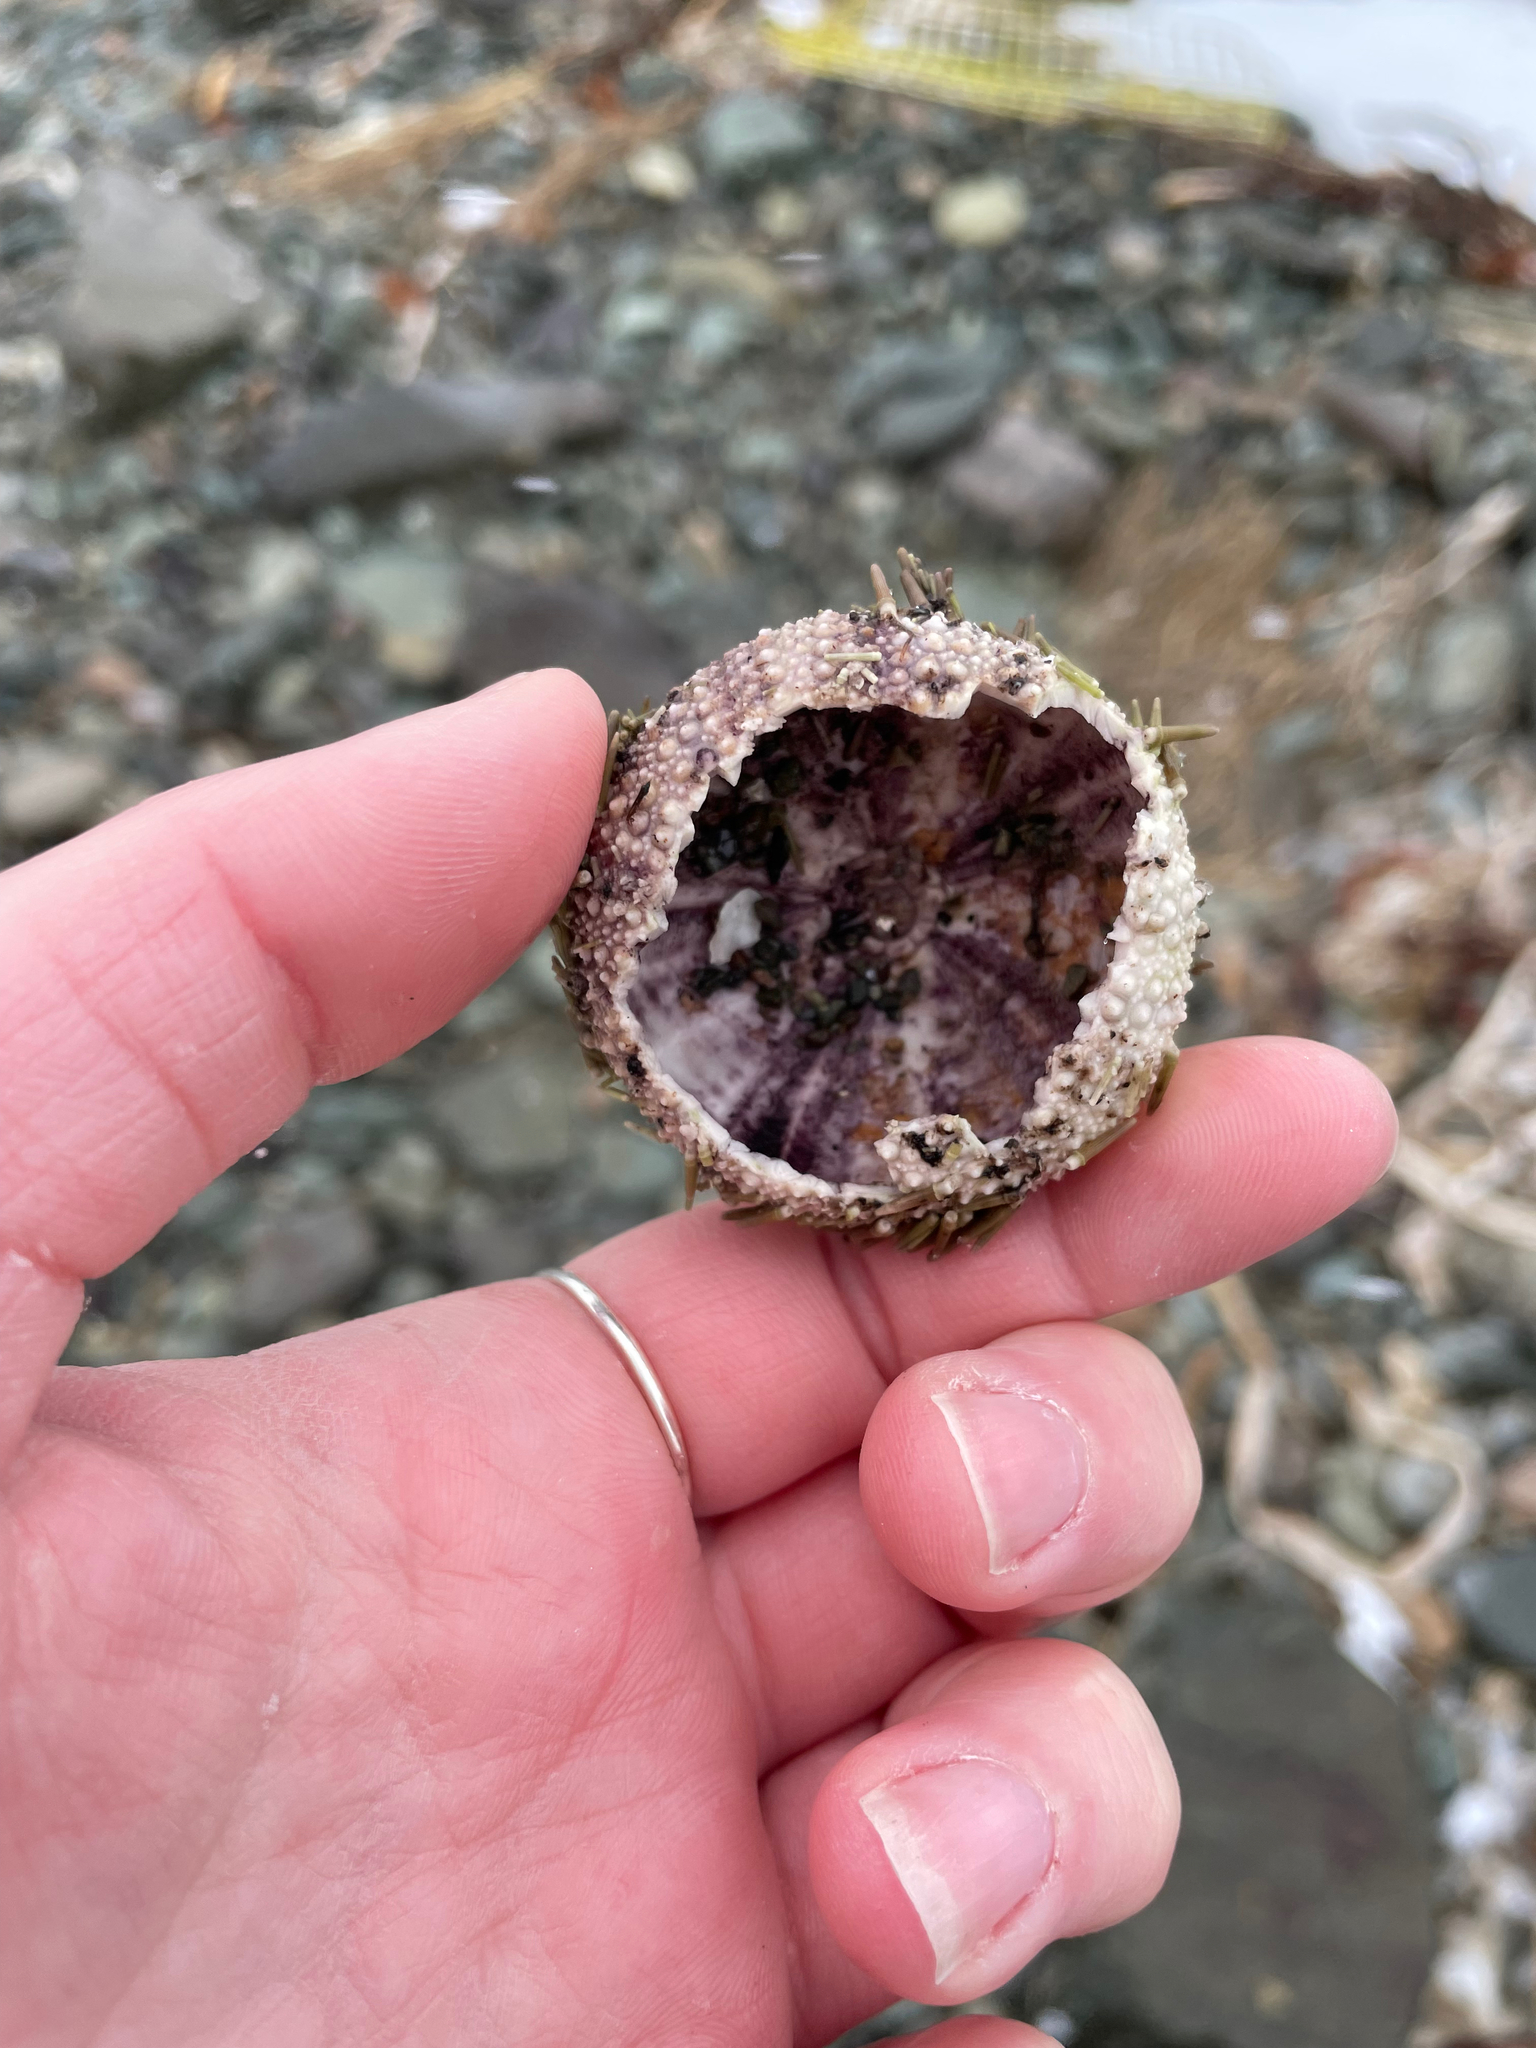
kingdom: Animalia
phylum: Echinodermata
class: Echinoidea
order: Camarodonta
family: Strongylocentrotidae
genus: Strongylocentrotus
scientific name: Strongylocentrotus droebachiensis
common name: Northern sea urchin
